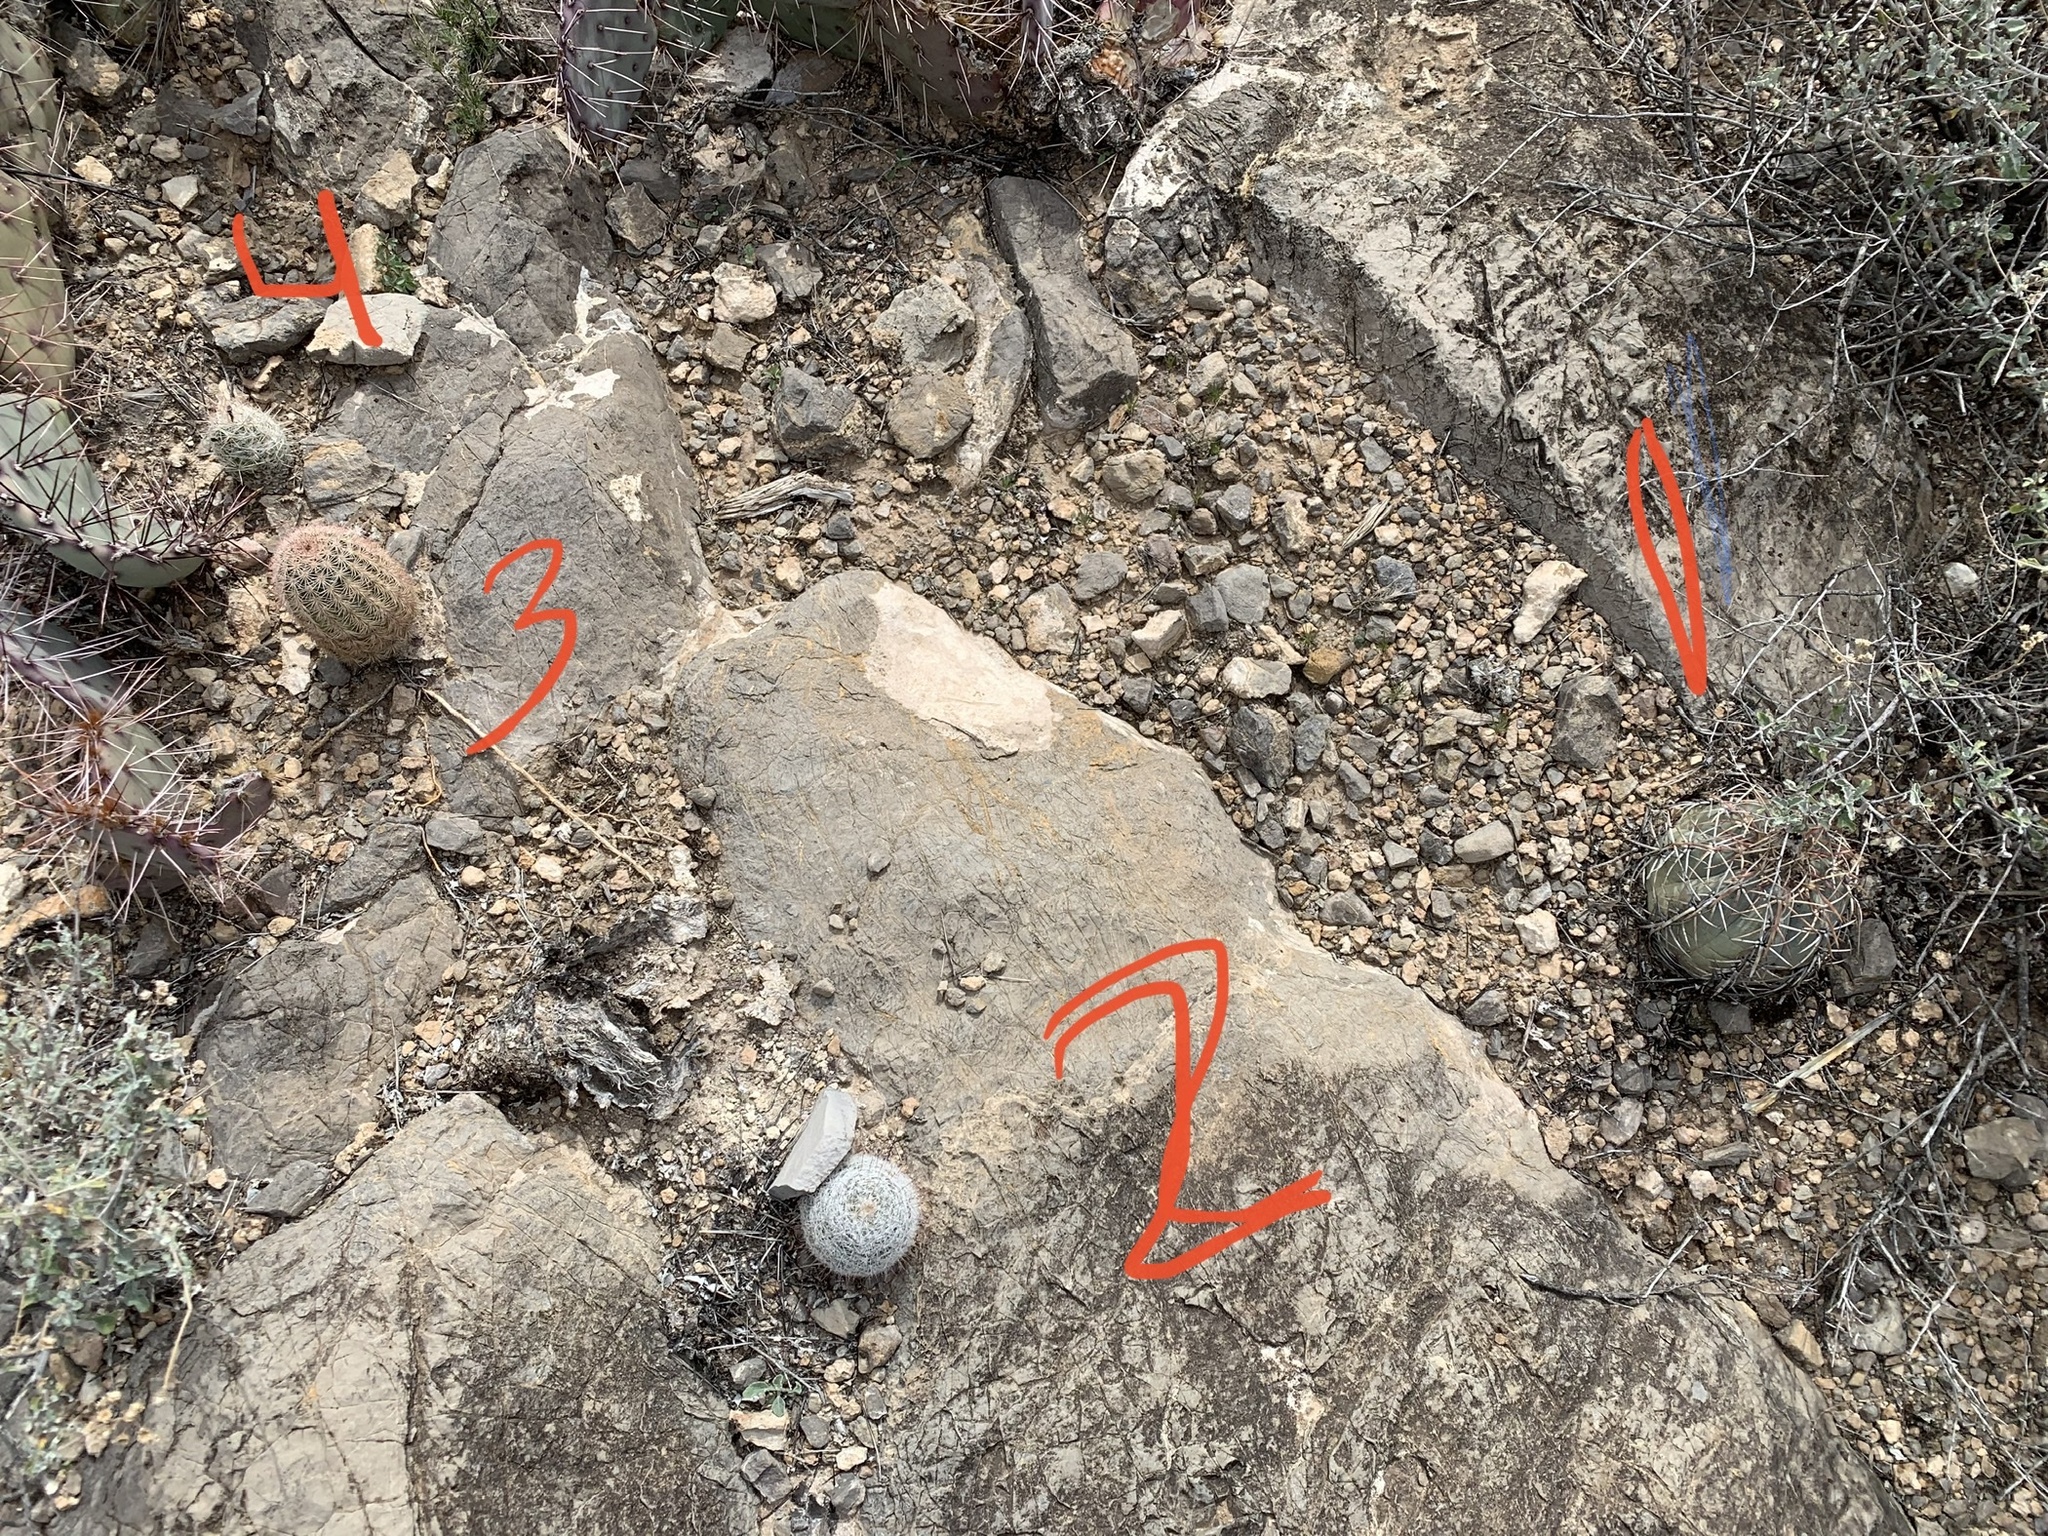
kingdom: Plantae
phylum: Tracheophyta
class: Magnoliopsida
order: Caryophyllales
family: Cactaceae
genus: Echinocereus
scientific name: Echinocereus dasyacanthus
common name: Spiny hedgehog cactus
